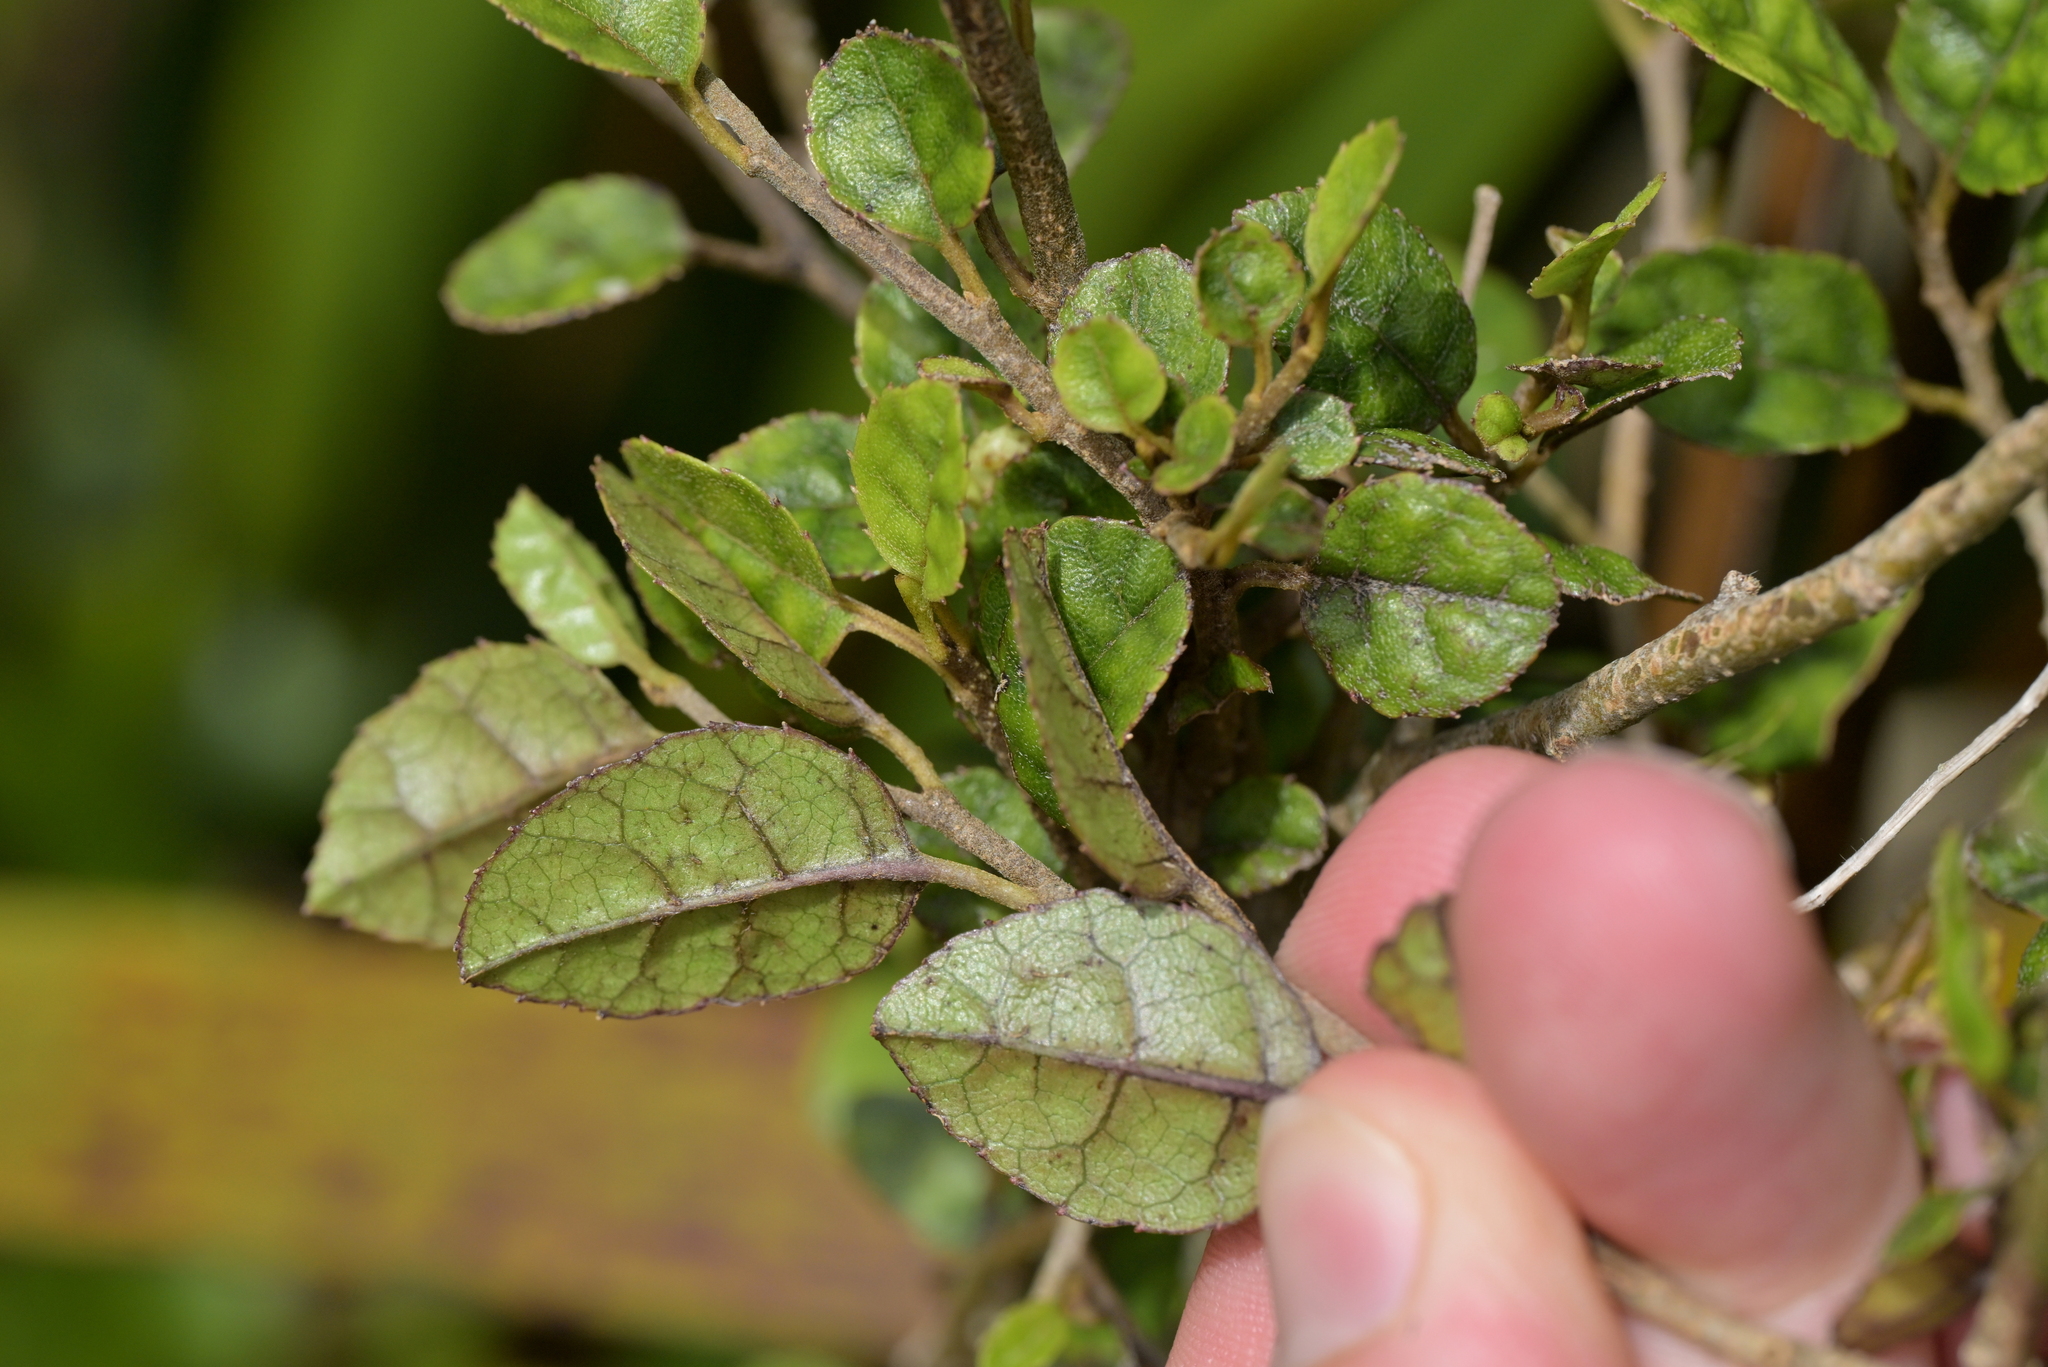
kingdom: Plantae
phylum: Tracheophyta
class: Magnoliopsida
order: Asterales
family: Rousseaceae
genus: Carpodetus
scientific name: Carpodetus serratus
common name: White mapau
